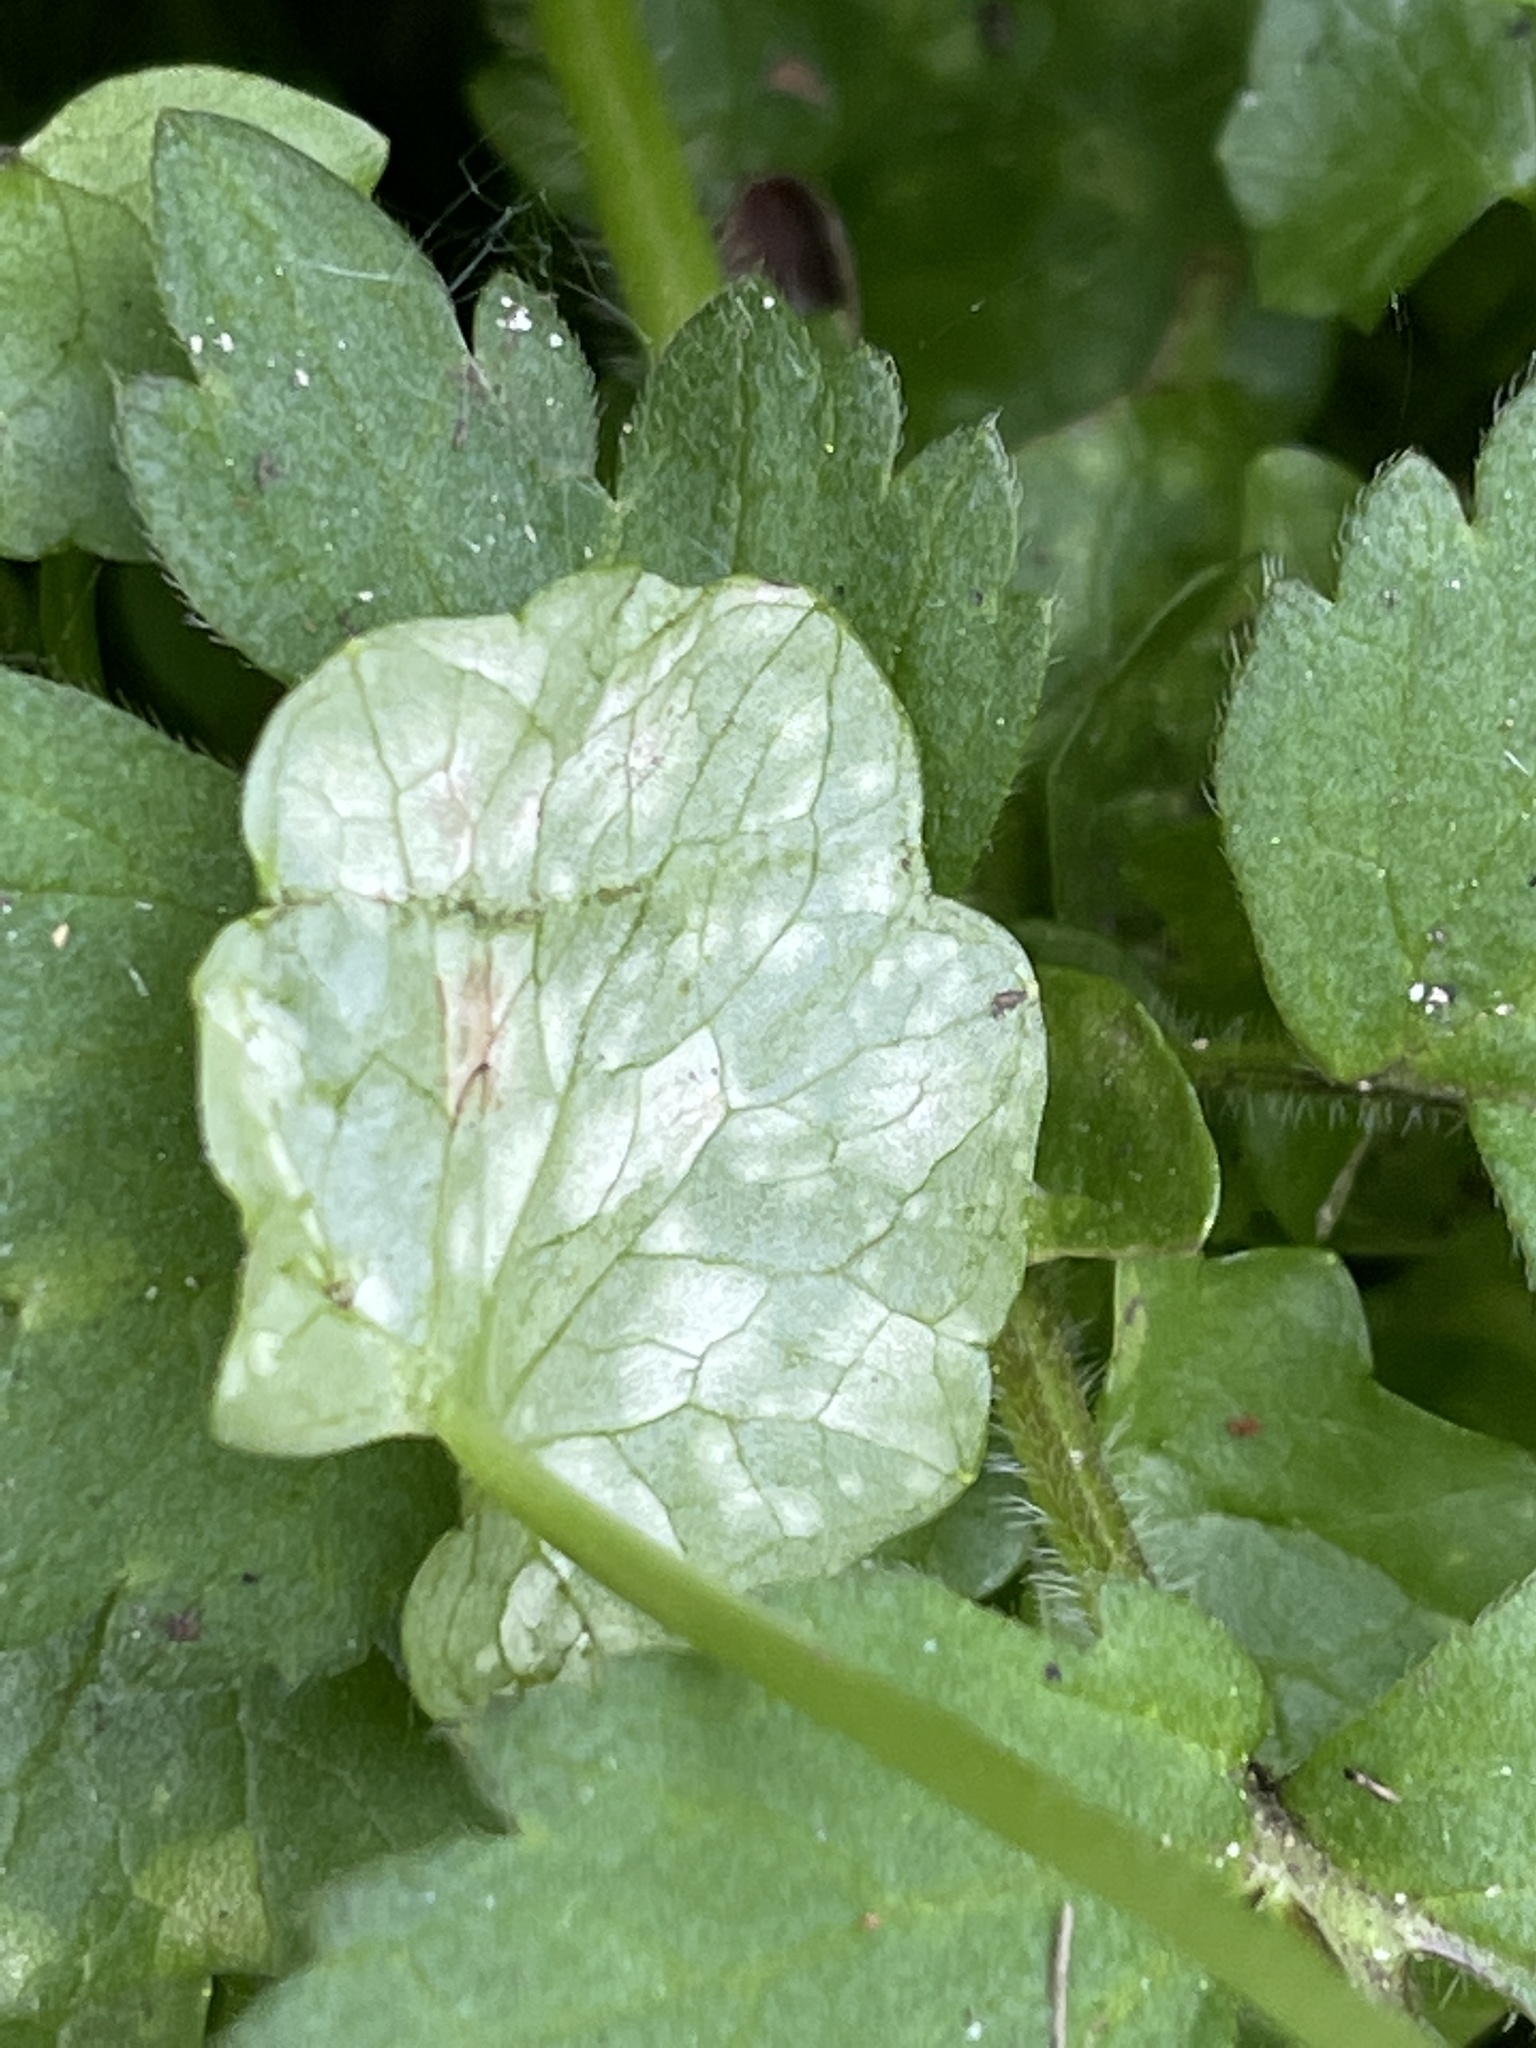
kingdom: Fungi
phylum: Basidiomycota
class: Exobasidiomycetes
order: Entylomatales
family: Entylomataceae
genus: Entyloma
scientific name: Entyloma ficariae
